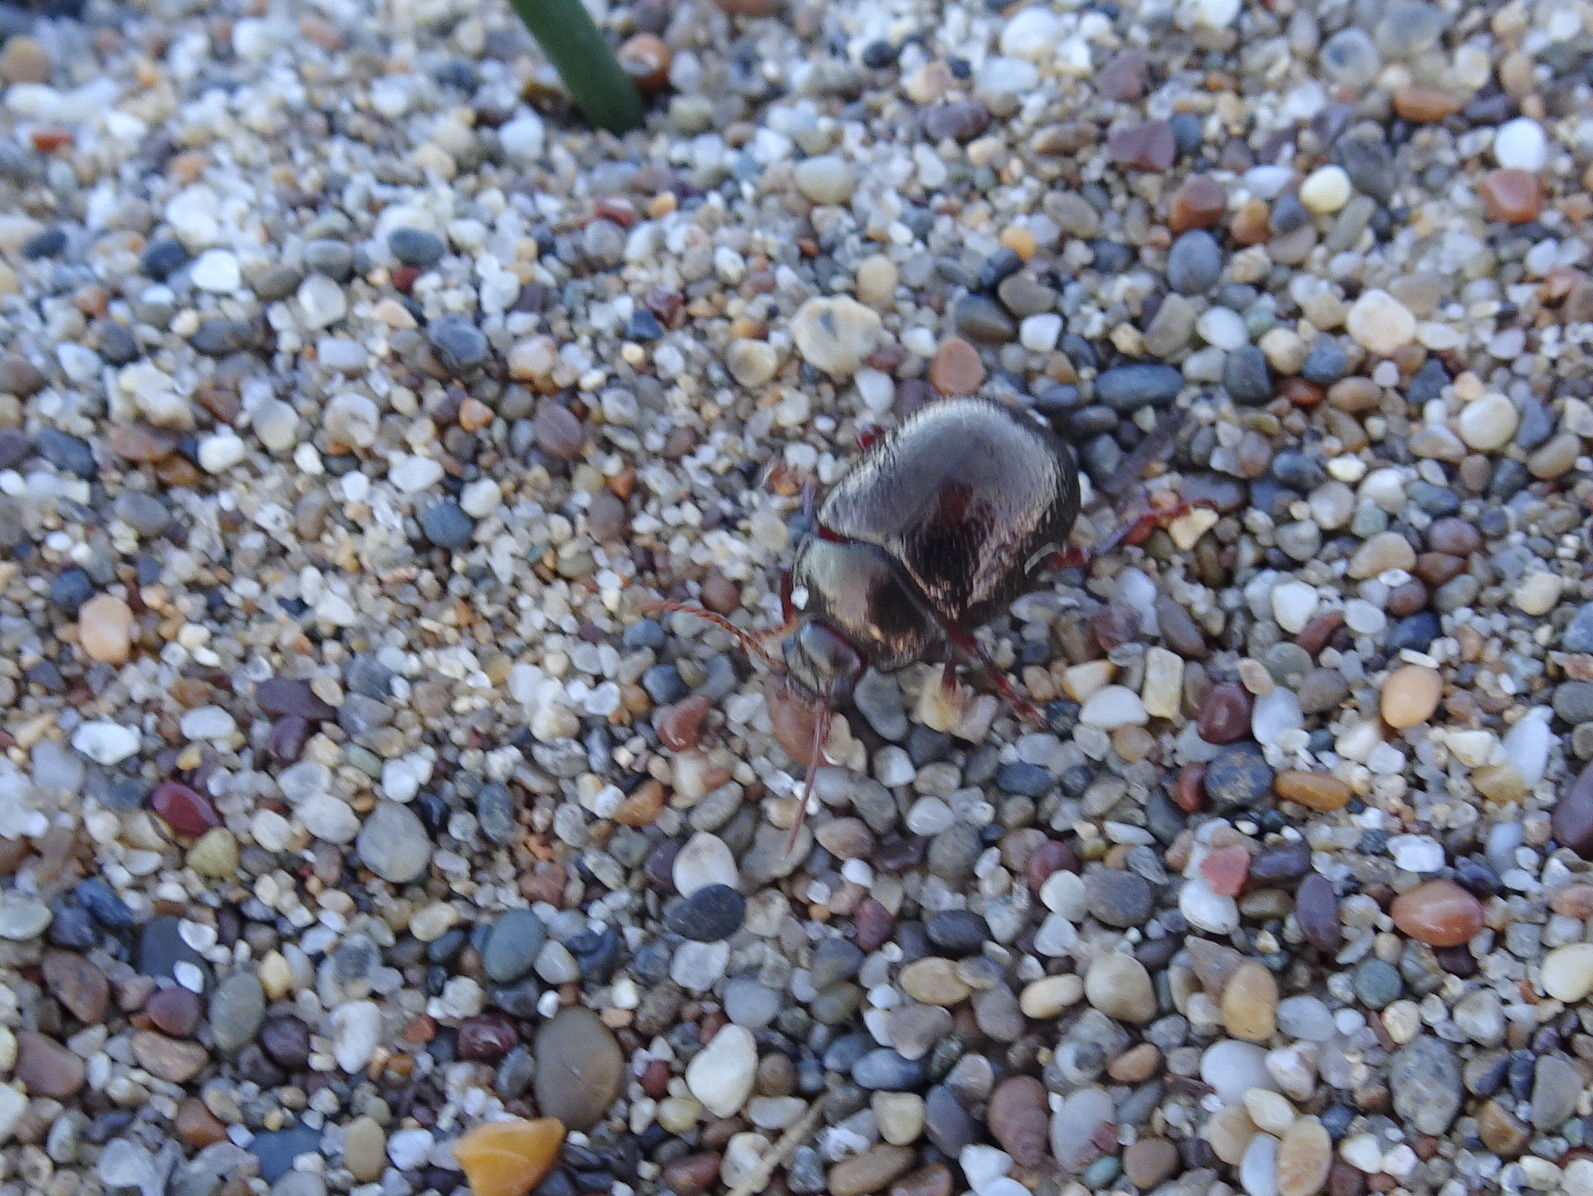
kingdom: Animalia
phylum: Arthropoda
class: Insecta
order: Coleoptera
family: Chrysomelidae
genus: Chrysolina
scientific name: Chrysolina bankii
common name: Leaf beetle
